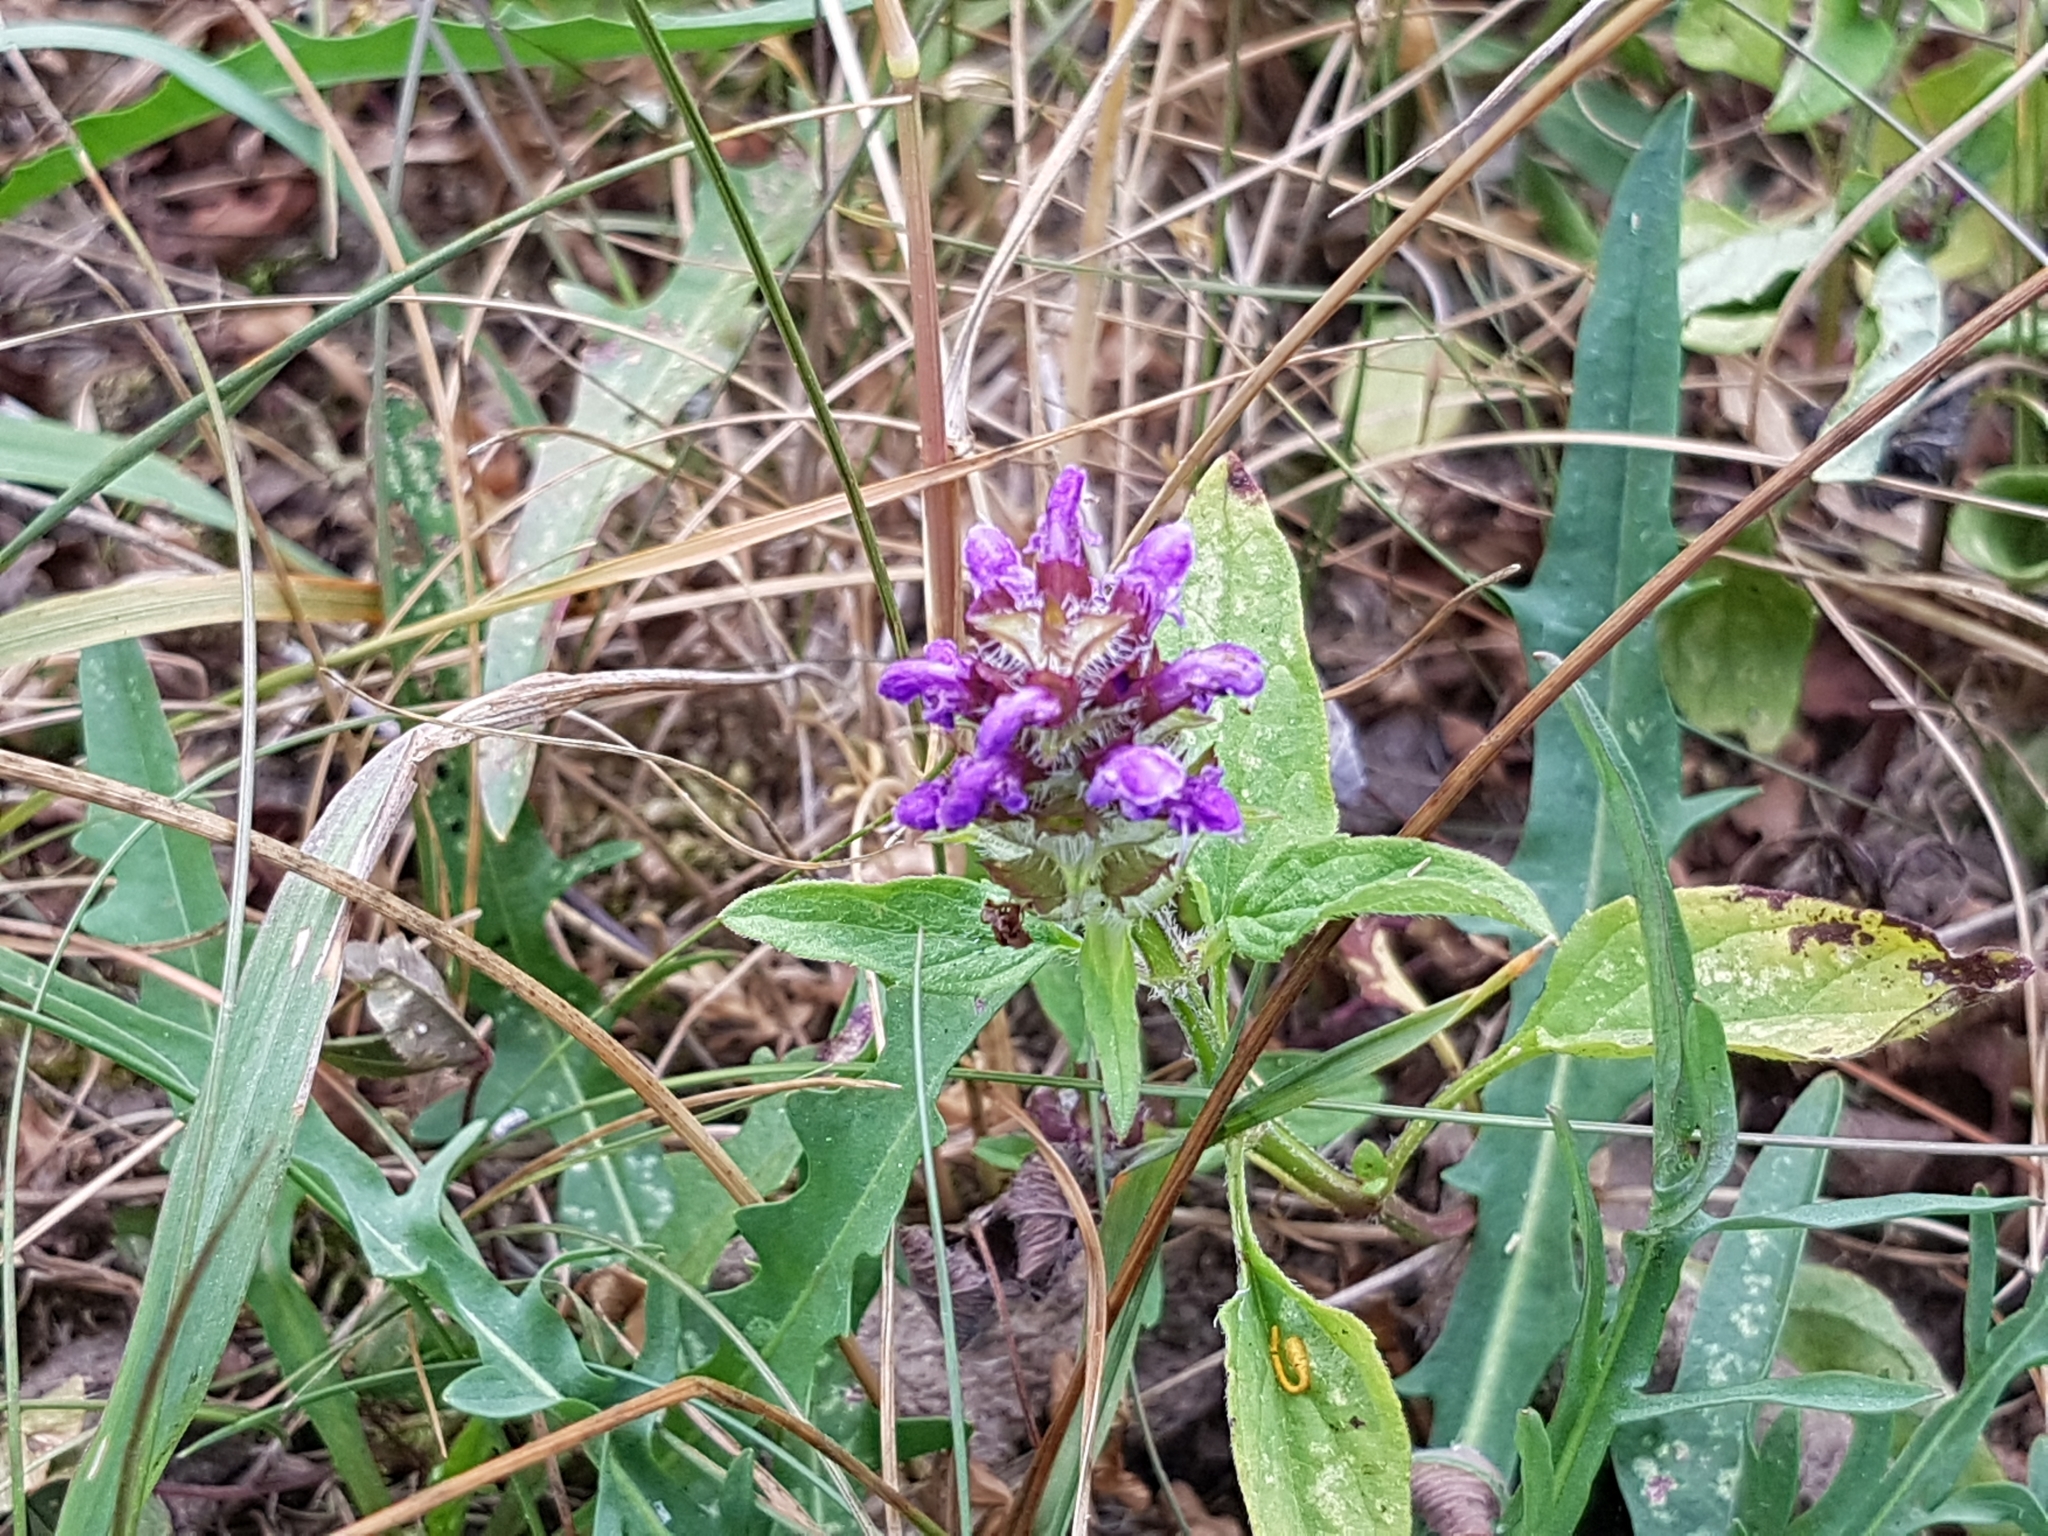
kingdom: Plantae
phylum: Tracheophyta
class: Magnoliopsida
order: Lamiales
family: Lamiaceae
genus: Prunella
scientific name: Prunella vulgaris
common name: Heal-all
